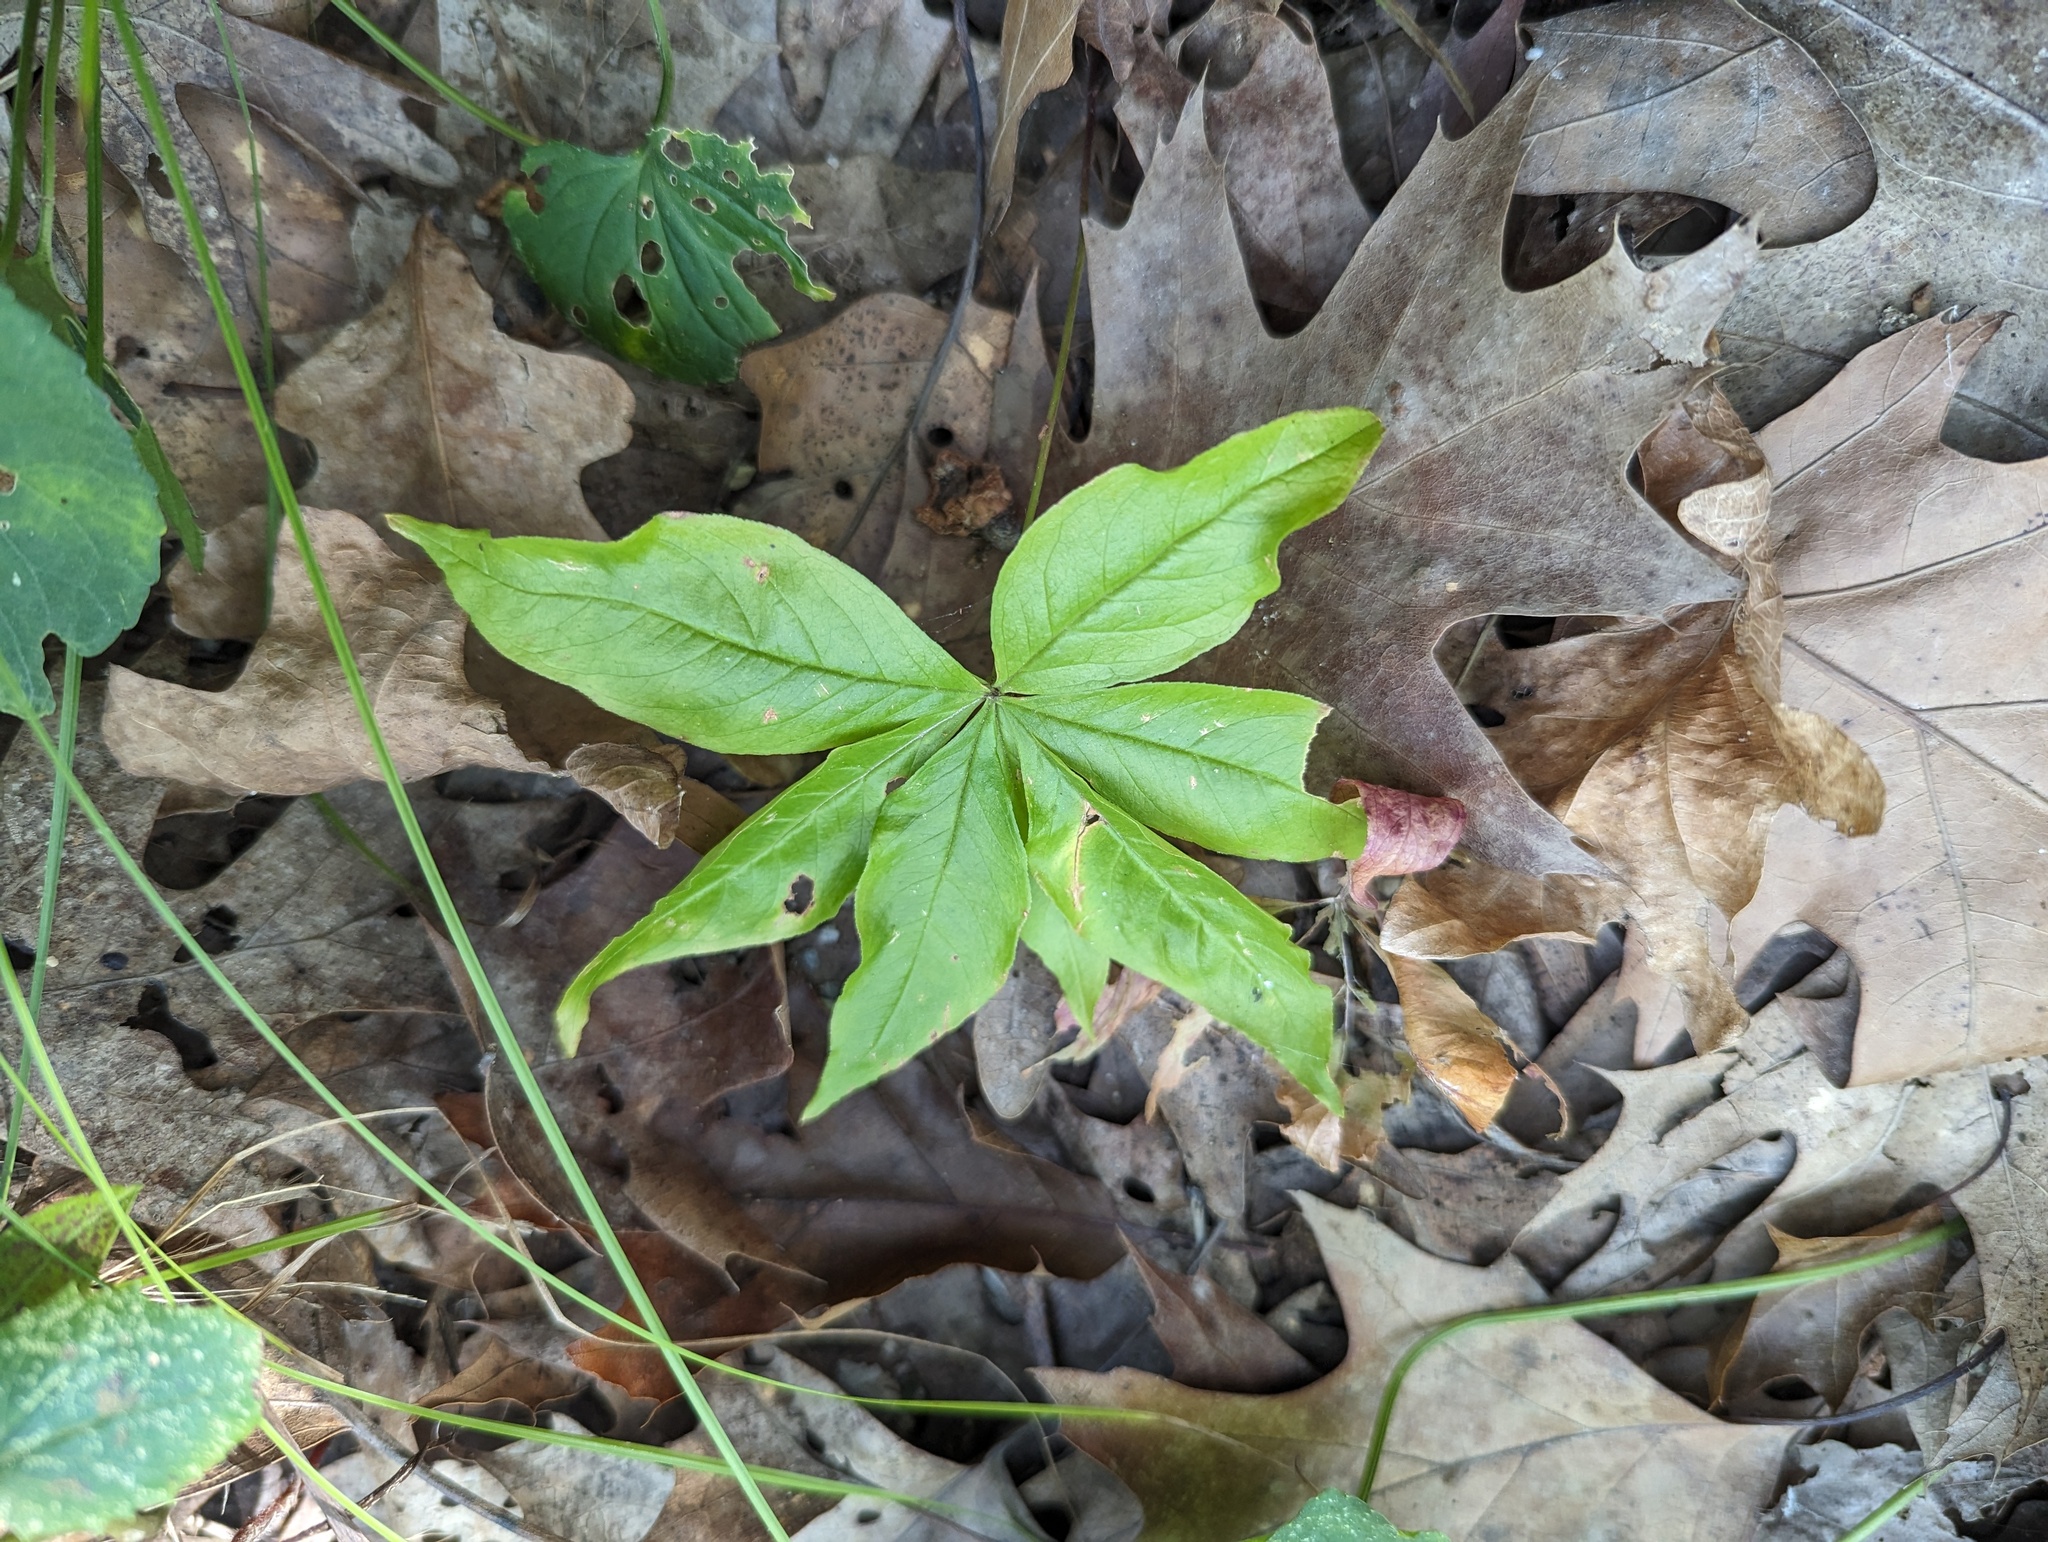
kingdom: Plantae
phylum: Tracheophyta
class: Magnoliopsida
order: Ericales
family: Primulaceae
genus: Lysimachia
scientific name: Lysimachia borealis
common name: American starflower
